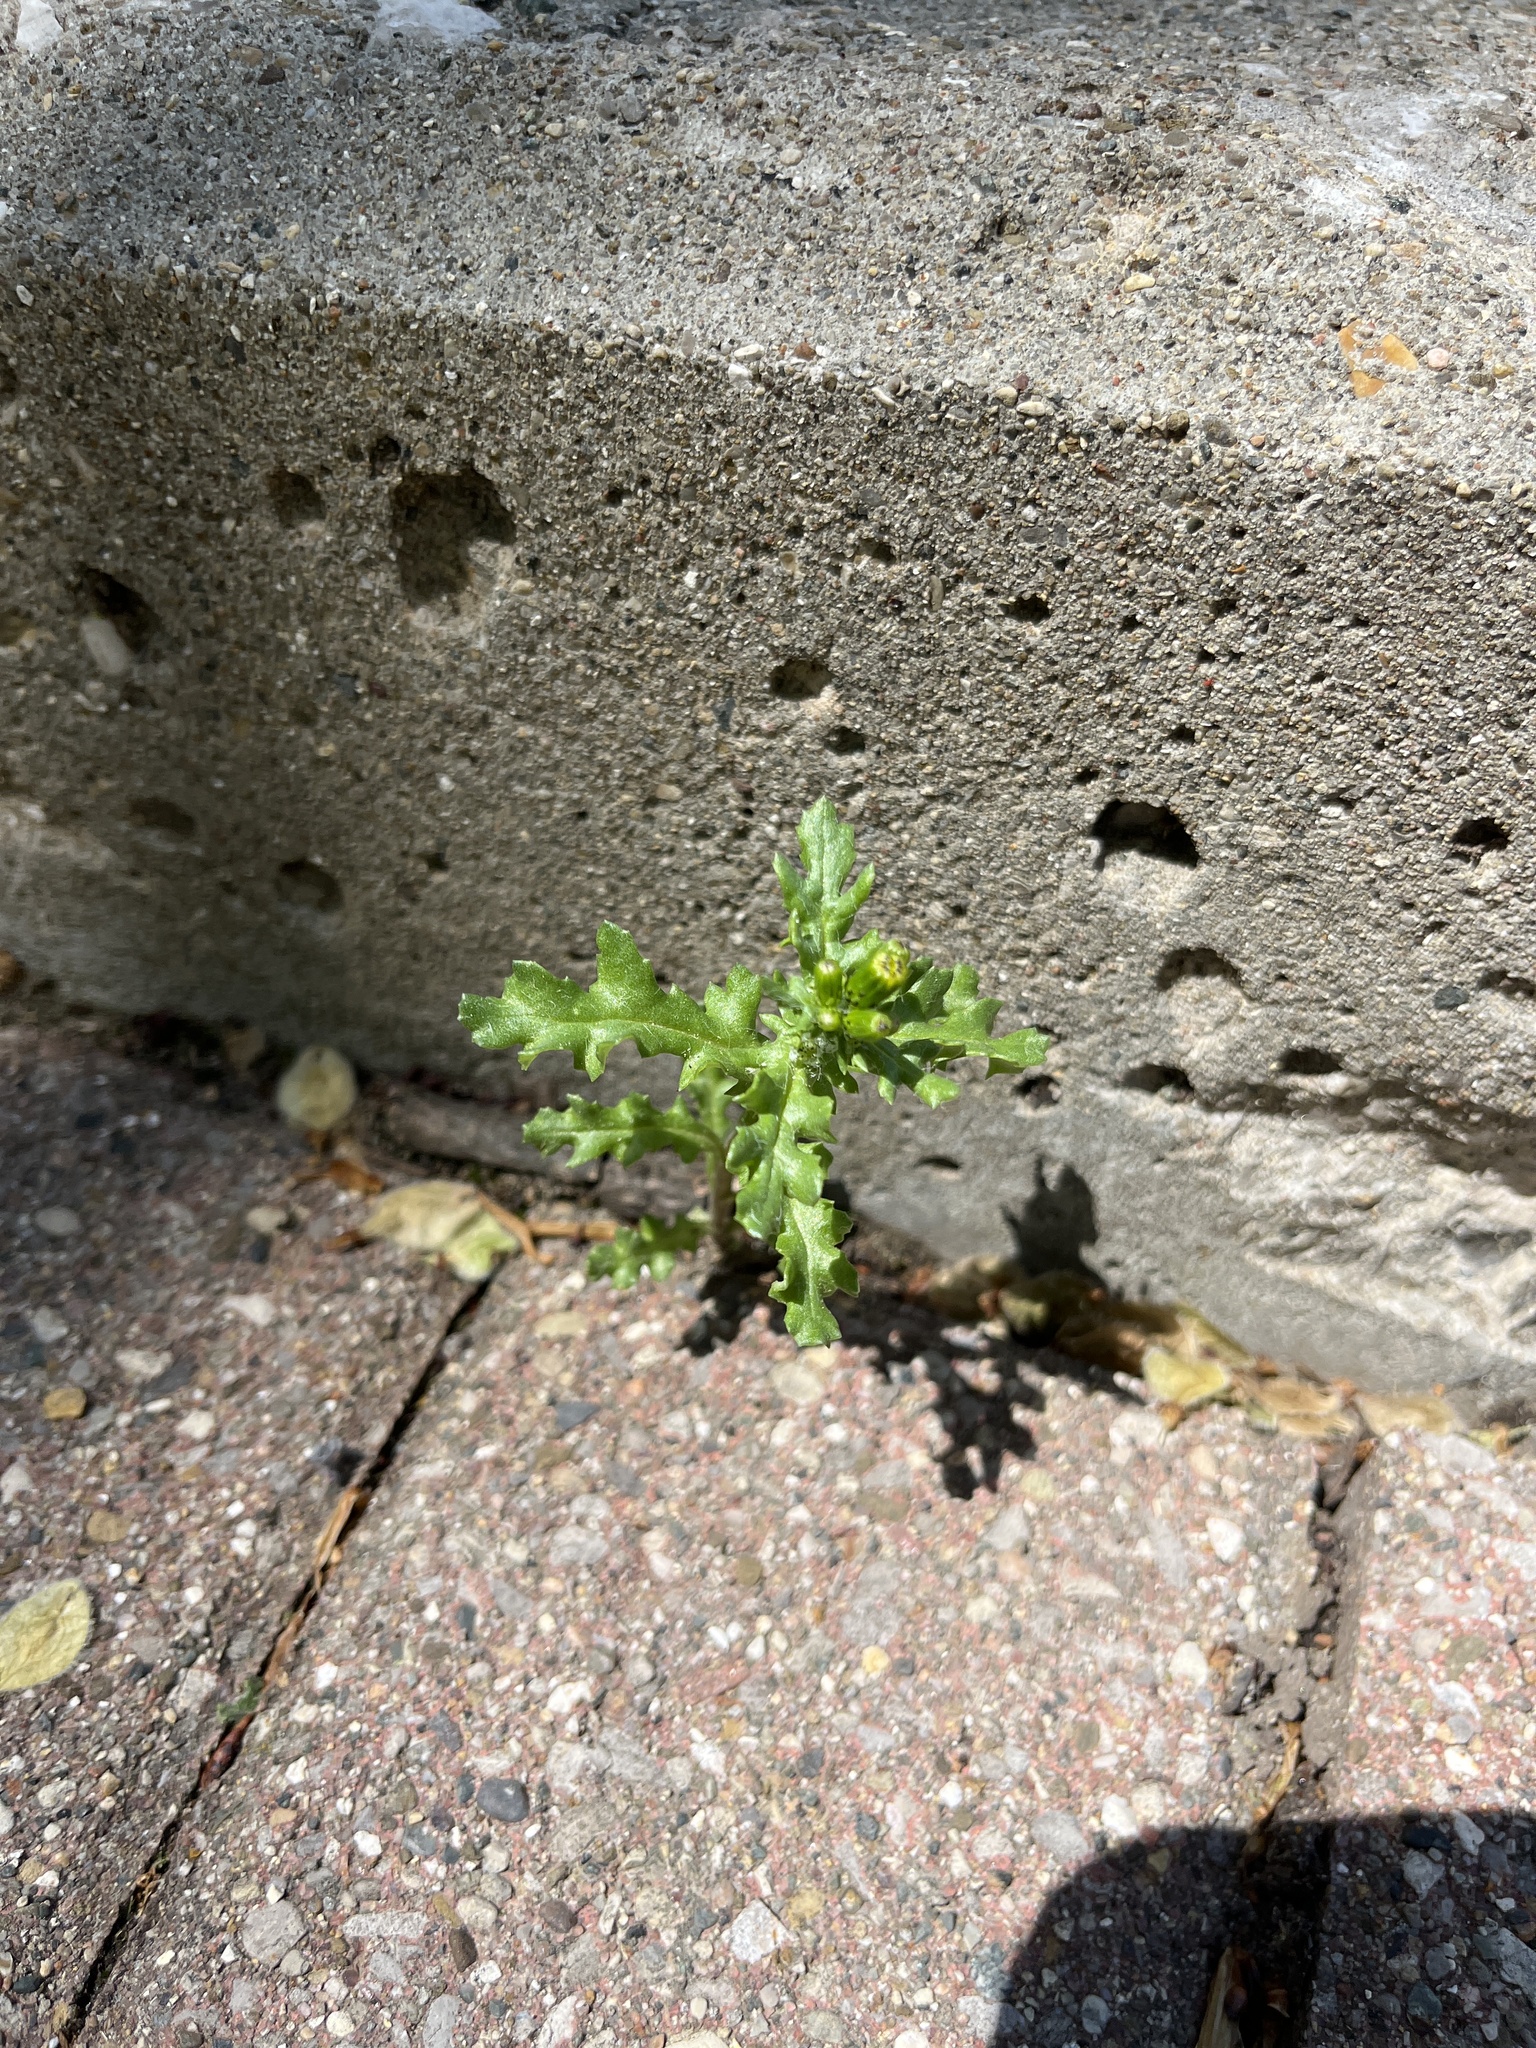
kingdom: Plantae
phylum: Tracheophyta
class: Magnoliopsida
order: Asterales
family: Asteraceae
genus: Senecio
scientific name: Senecio vulgaris
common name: Old-man-in-the-spring
